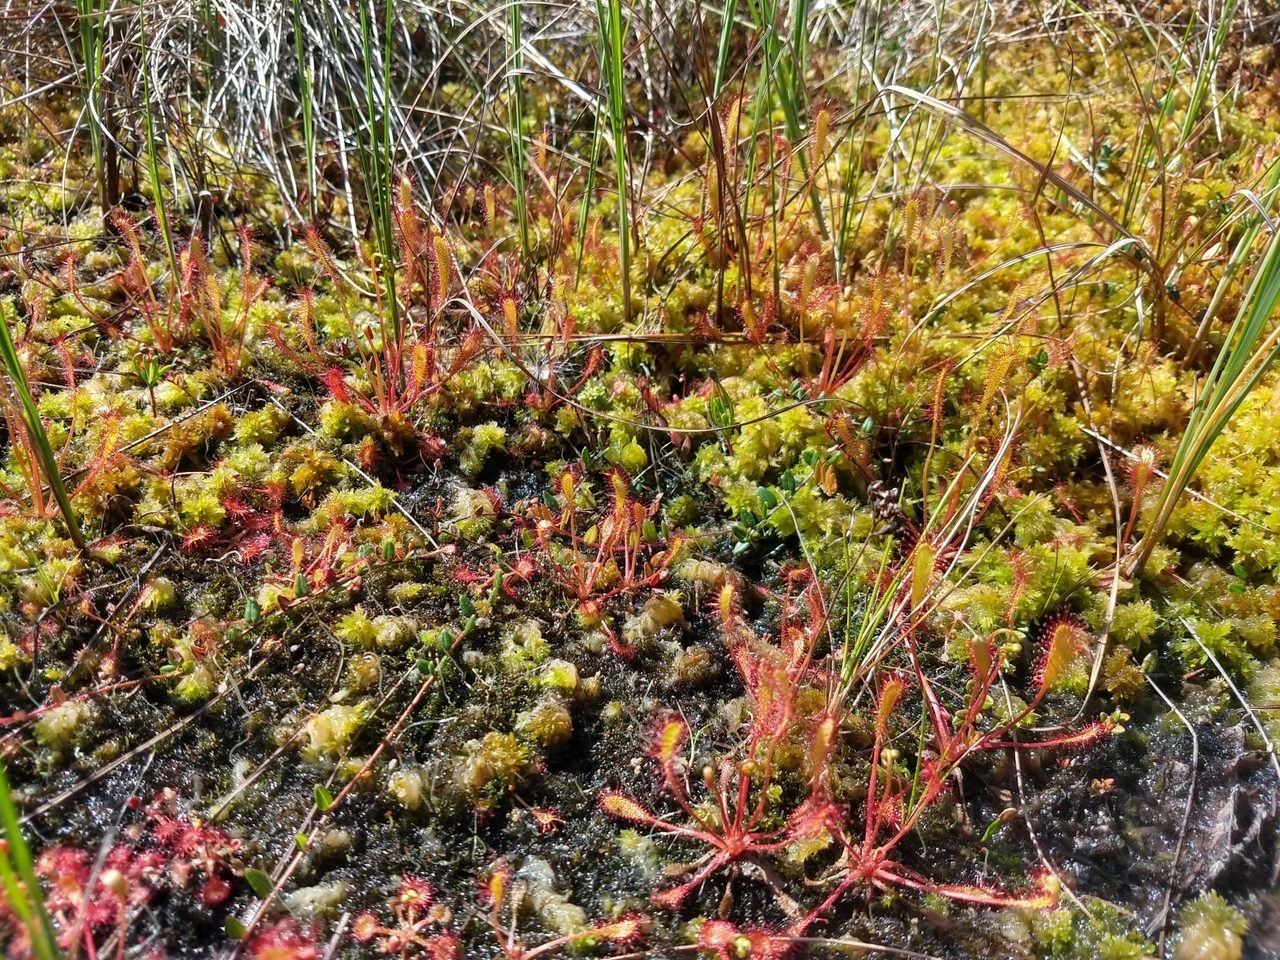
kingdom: Plantae
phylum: Tracheophyta
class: Magnoliopsida
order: Caryophyllales
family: Droseraceae
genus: Drosera
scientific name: Drosera anglica
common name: Great sundew
